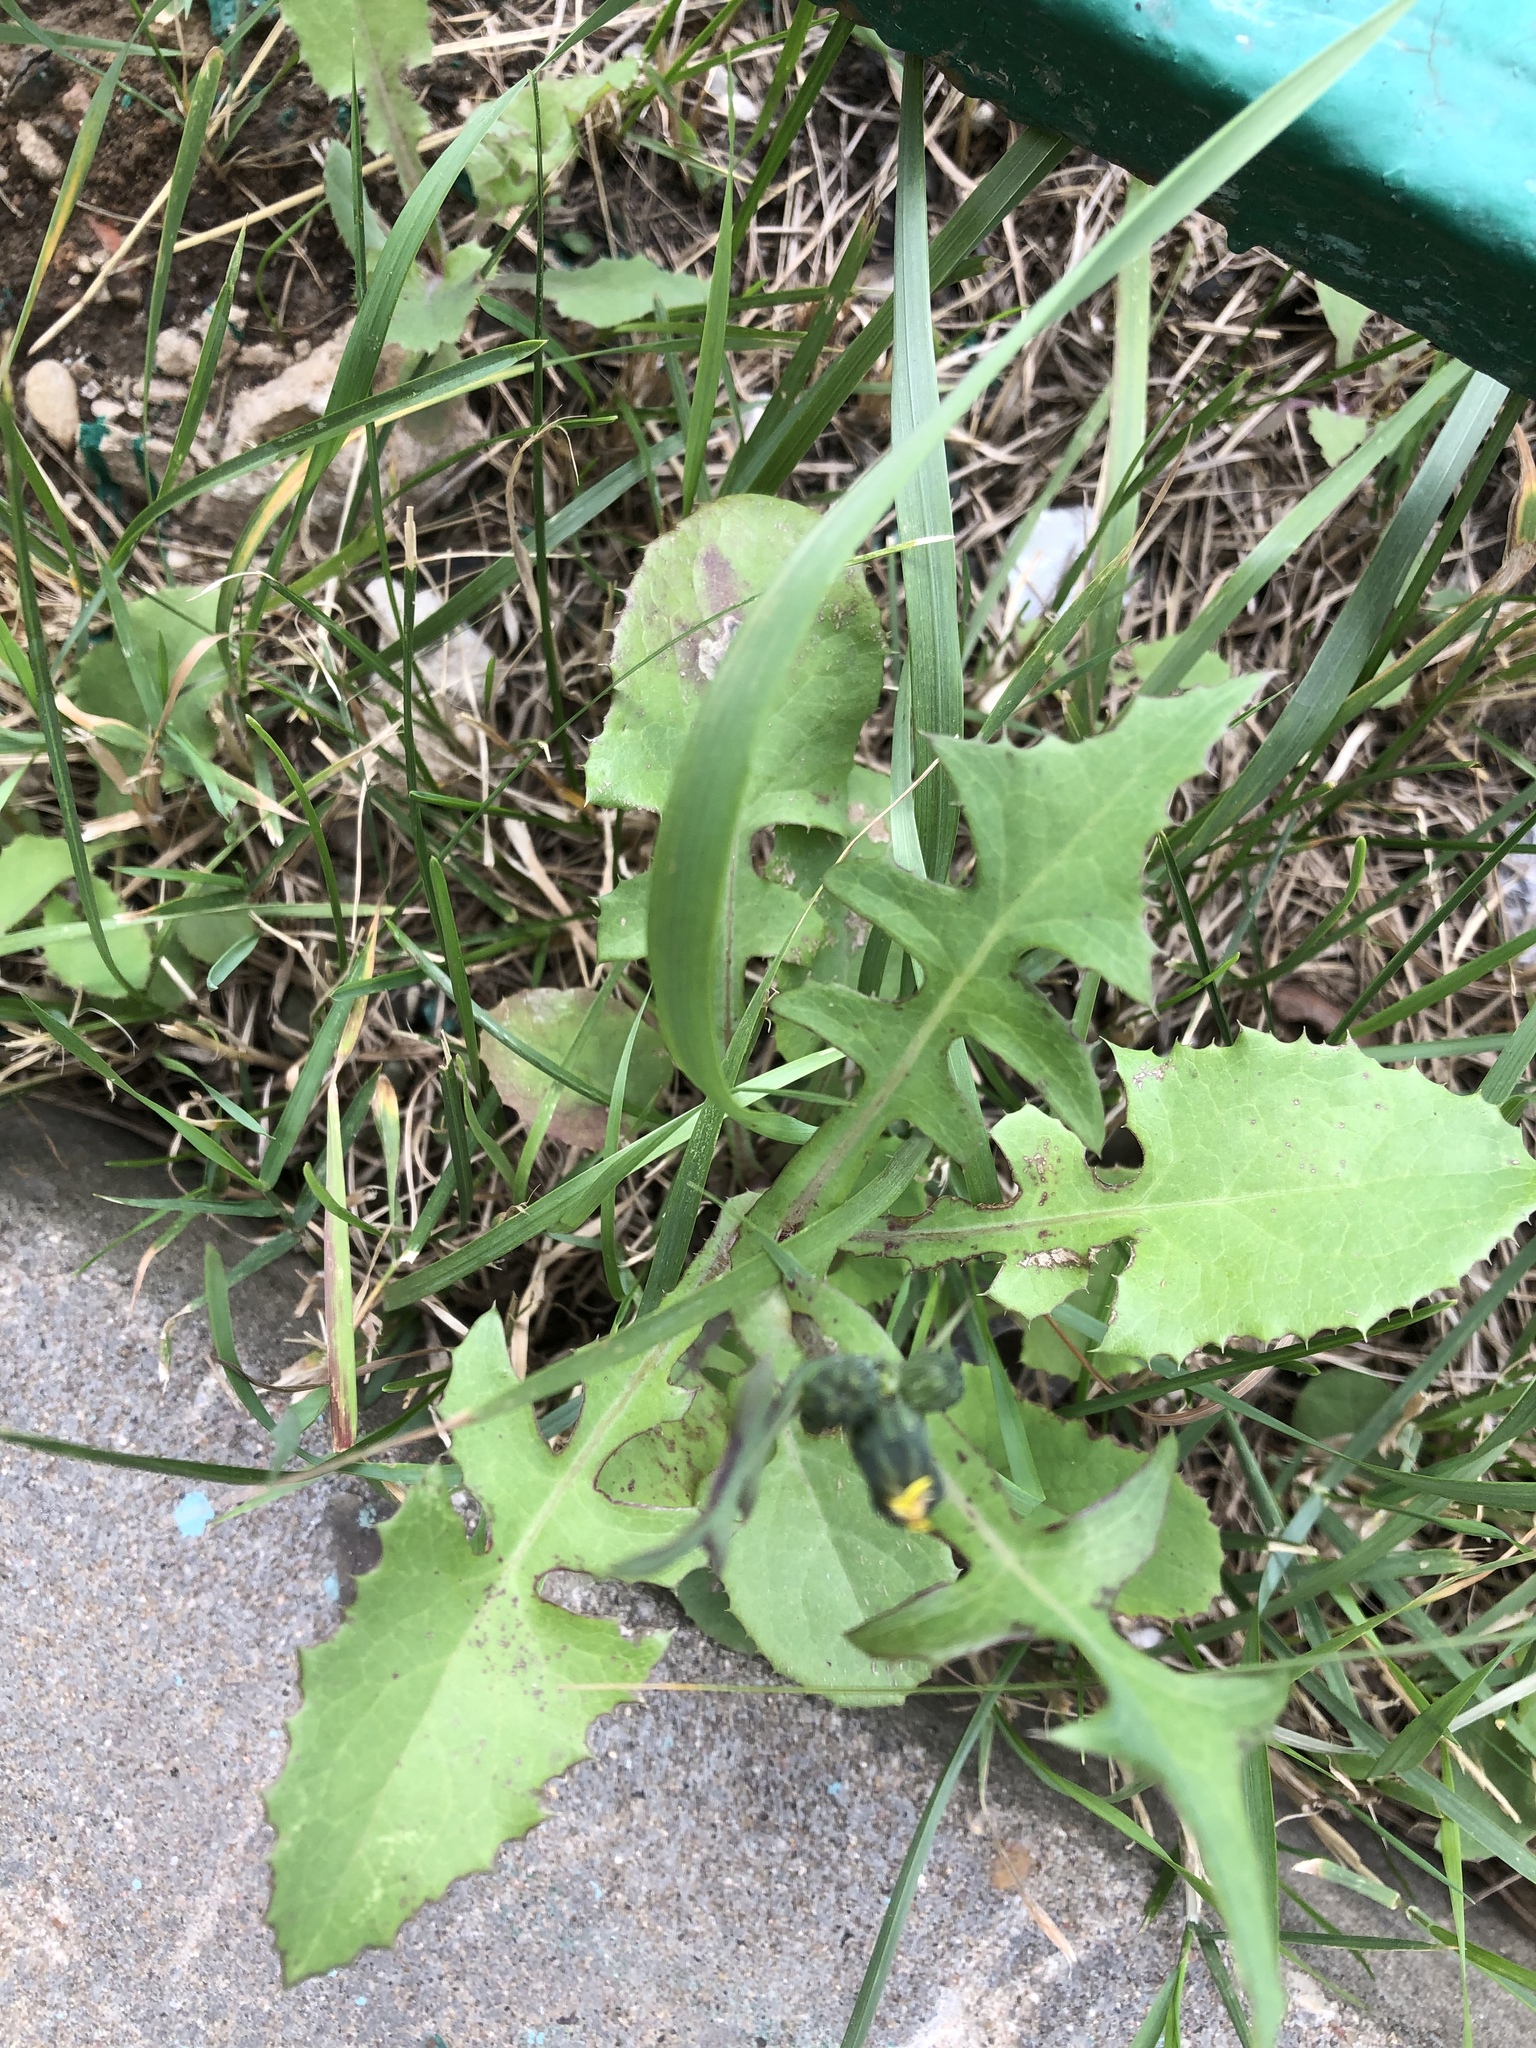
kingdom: Plantae
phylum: Tracheophyta
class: Magnoliopsida
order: Asterales
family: Asteraceae
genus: Sonchus
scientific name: Sonchus oleraceus
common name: Common sowthistle
